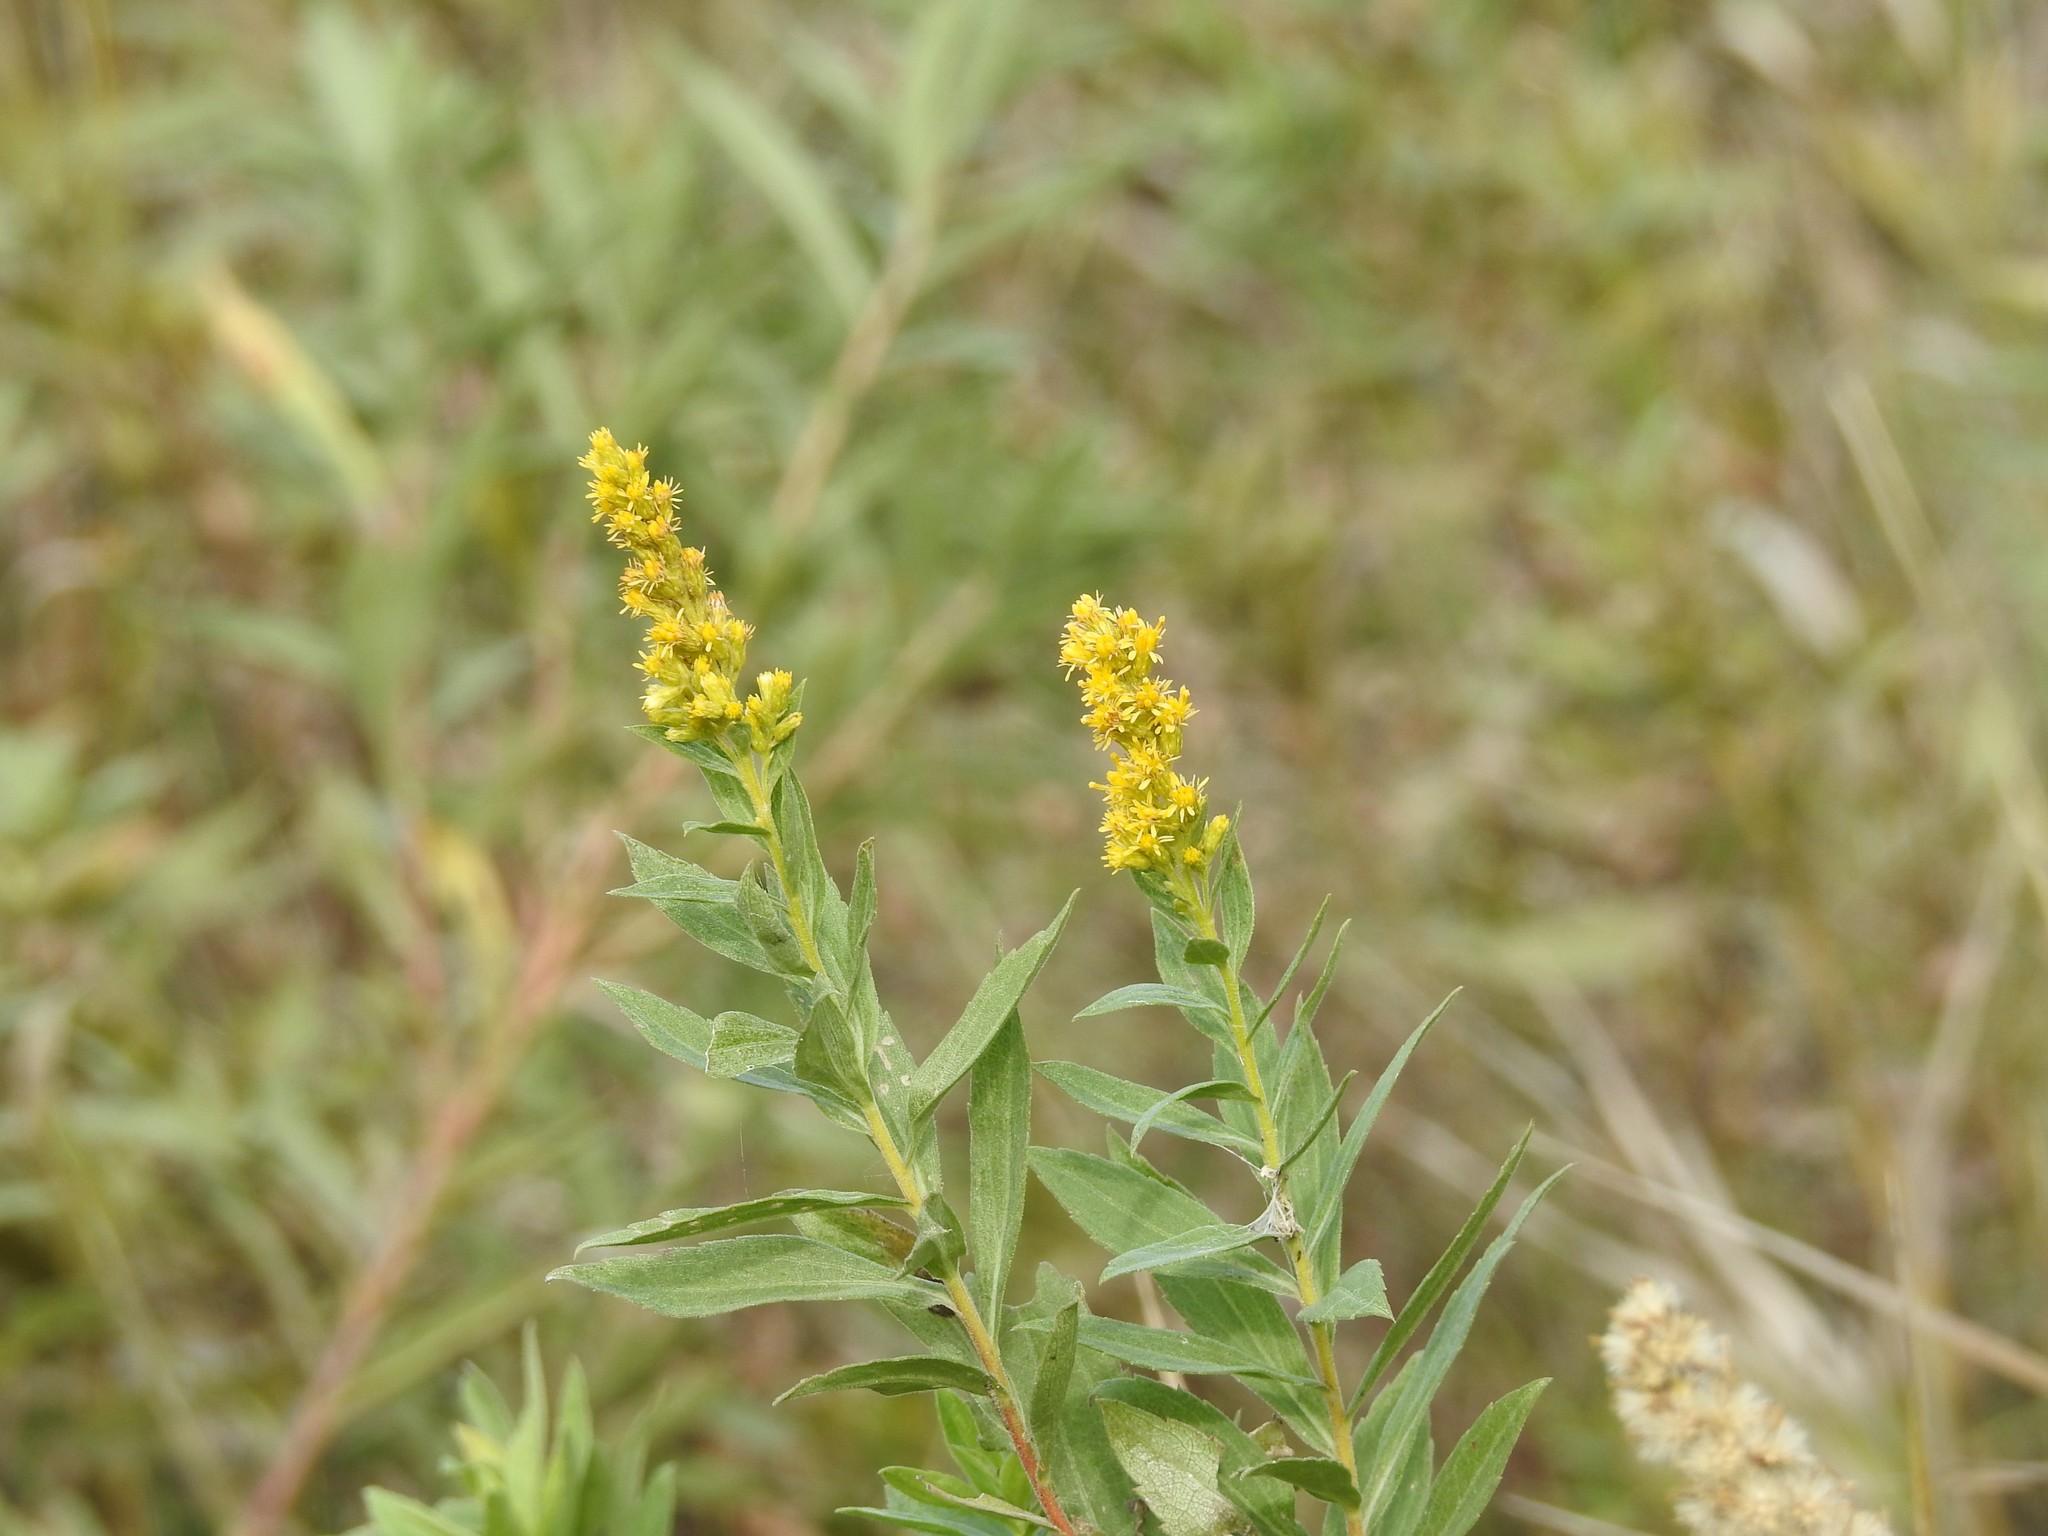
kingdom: Plantae
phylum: Tracheophyta
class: Magnoliopsida
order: Asterales
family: Asteraceae
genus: Solidago
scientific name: Solidago canadensis
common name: Canada goldenrod
